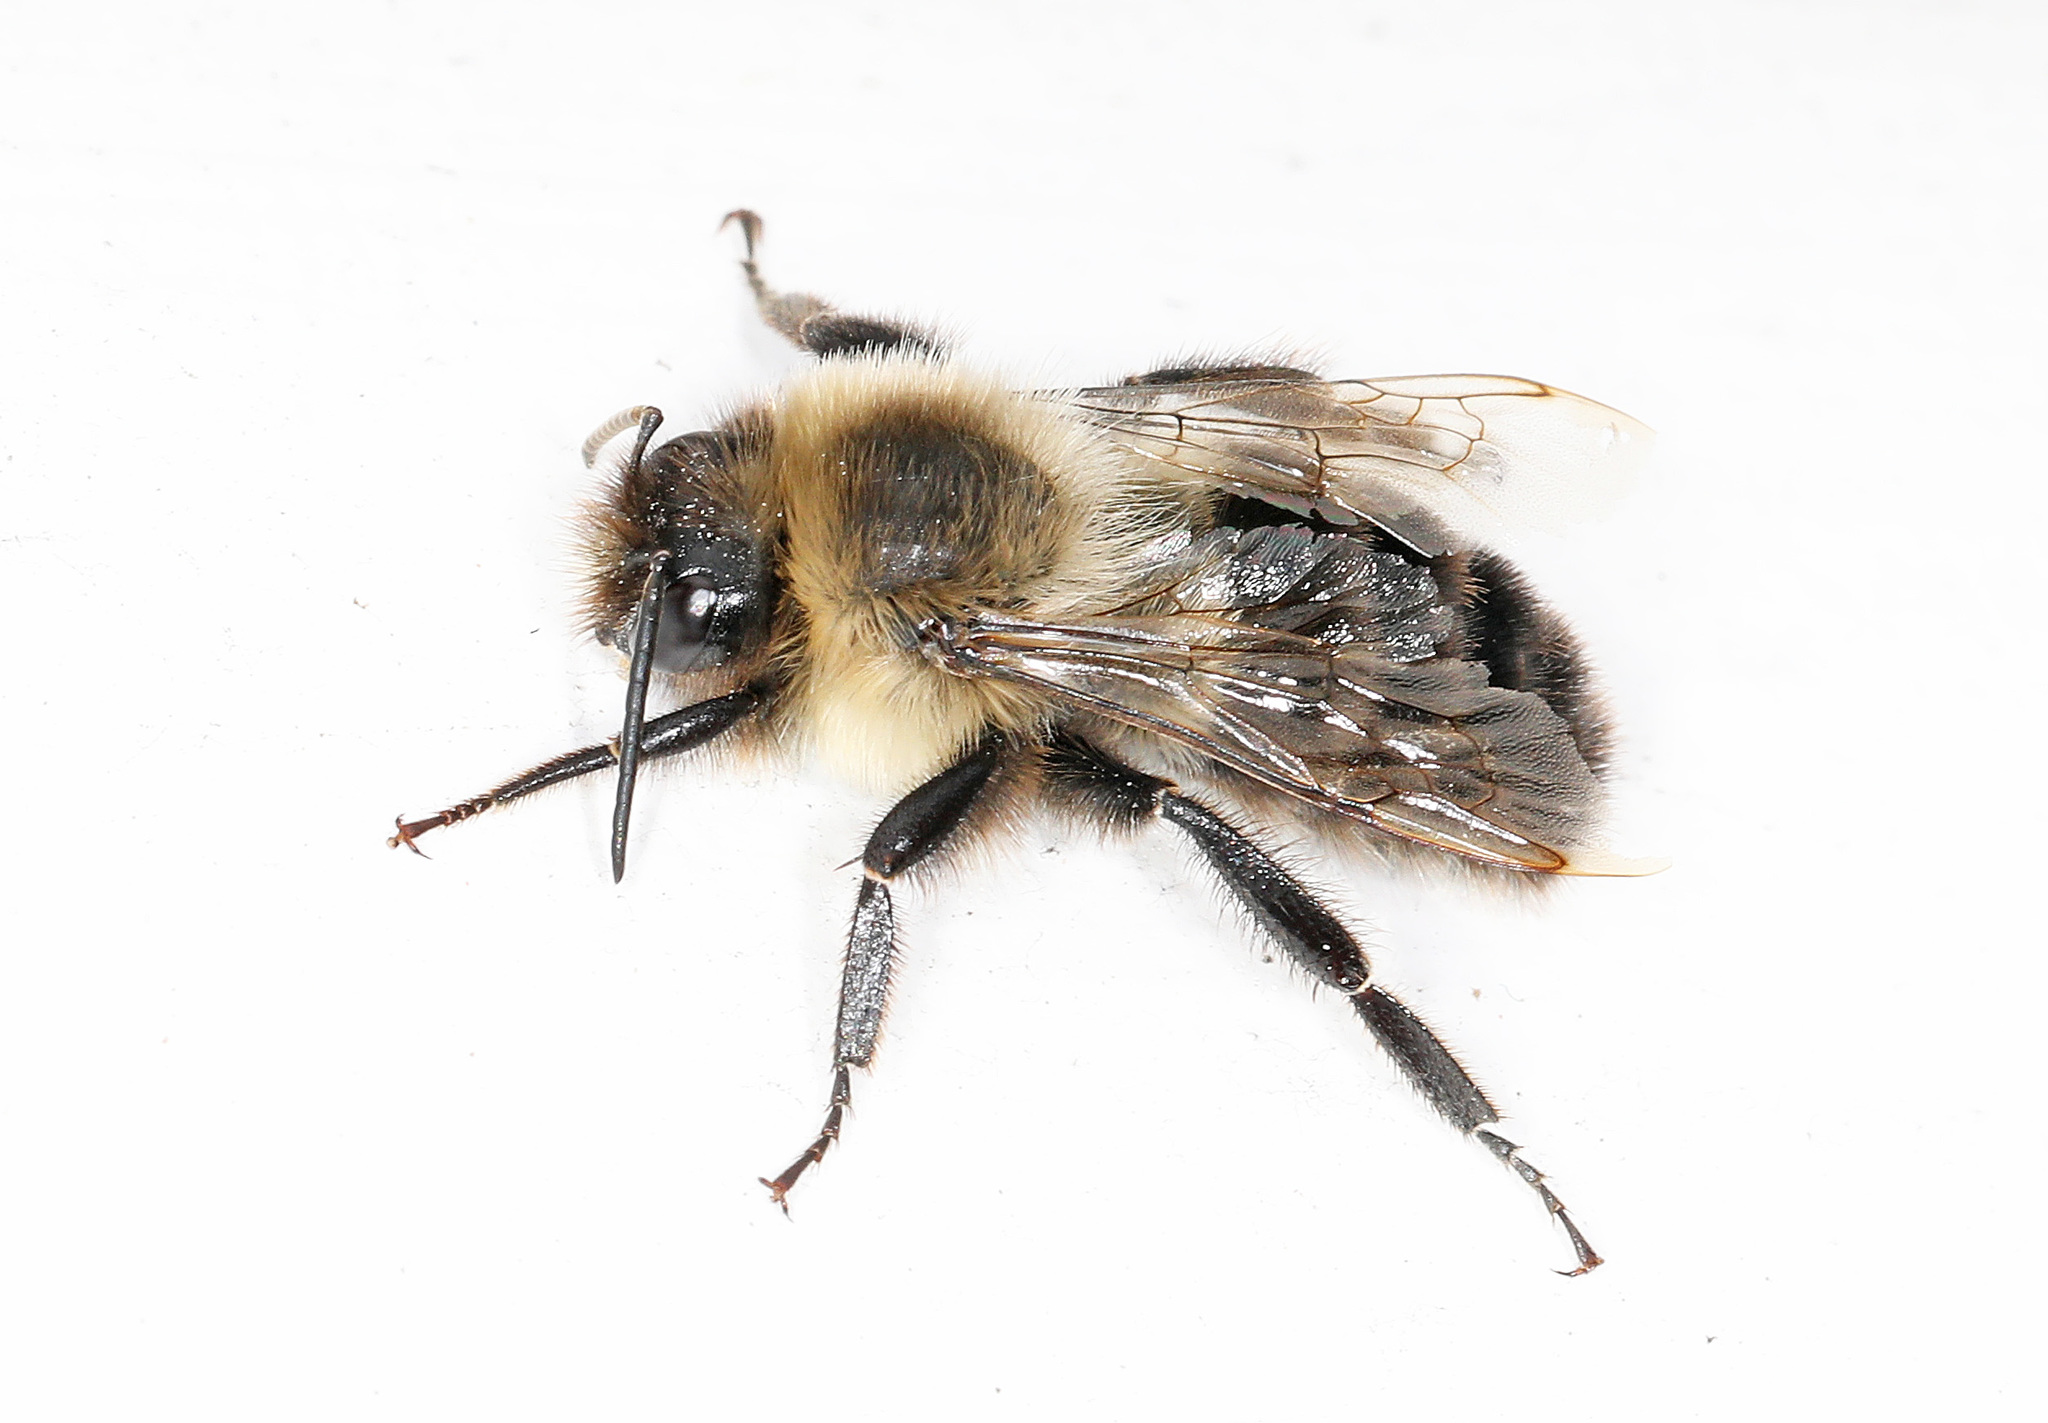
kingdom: Animalia
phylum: Arthropoda
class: Insecta
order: Hymenoptera
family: Apidae
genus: Bombus
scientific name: Bombus impatiens
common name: Common eastern bumble bee
